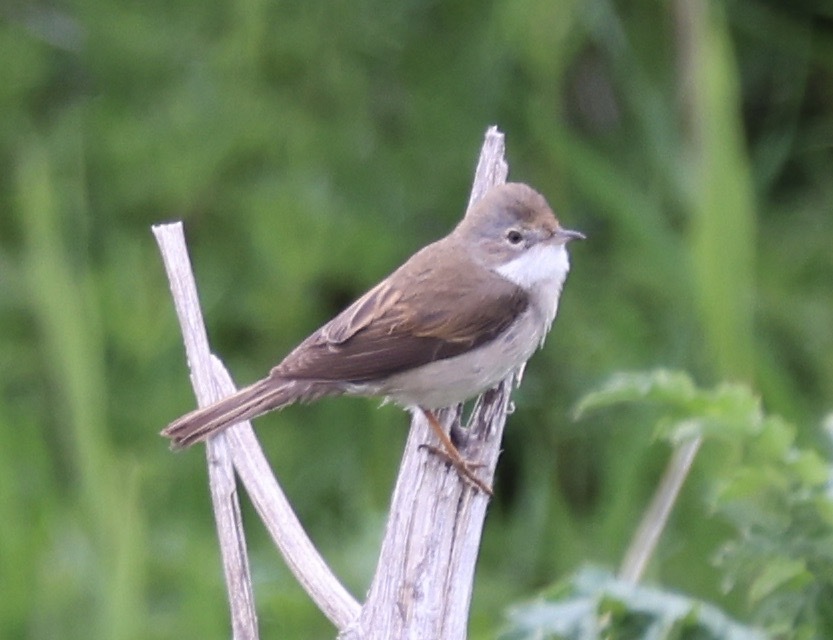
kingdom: Animalia
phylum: Chordata
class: Aves
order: Passeriformes
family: Sylviidae
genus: Sylvia
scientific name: Sylvia communis
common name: Common whitethroat
